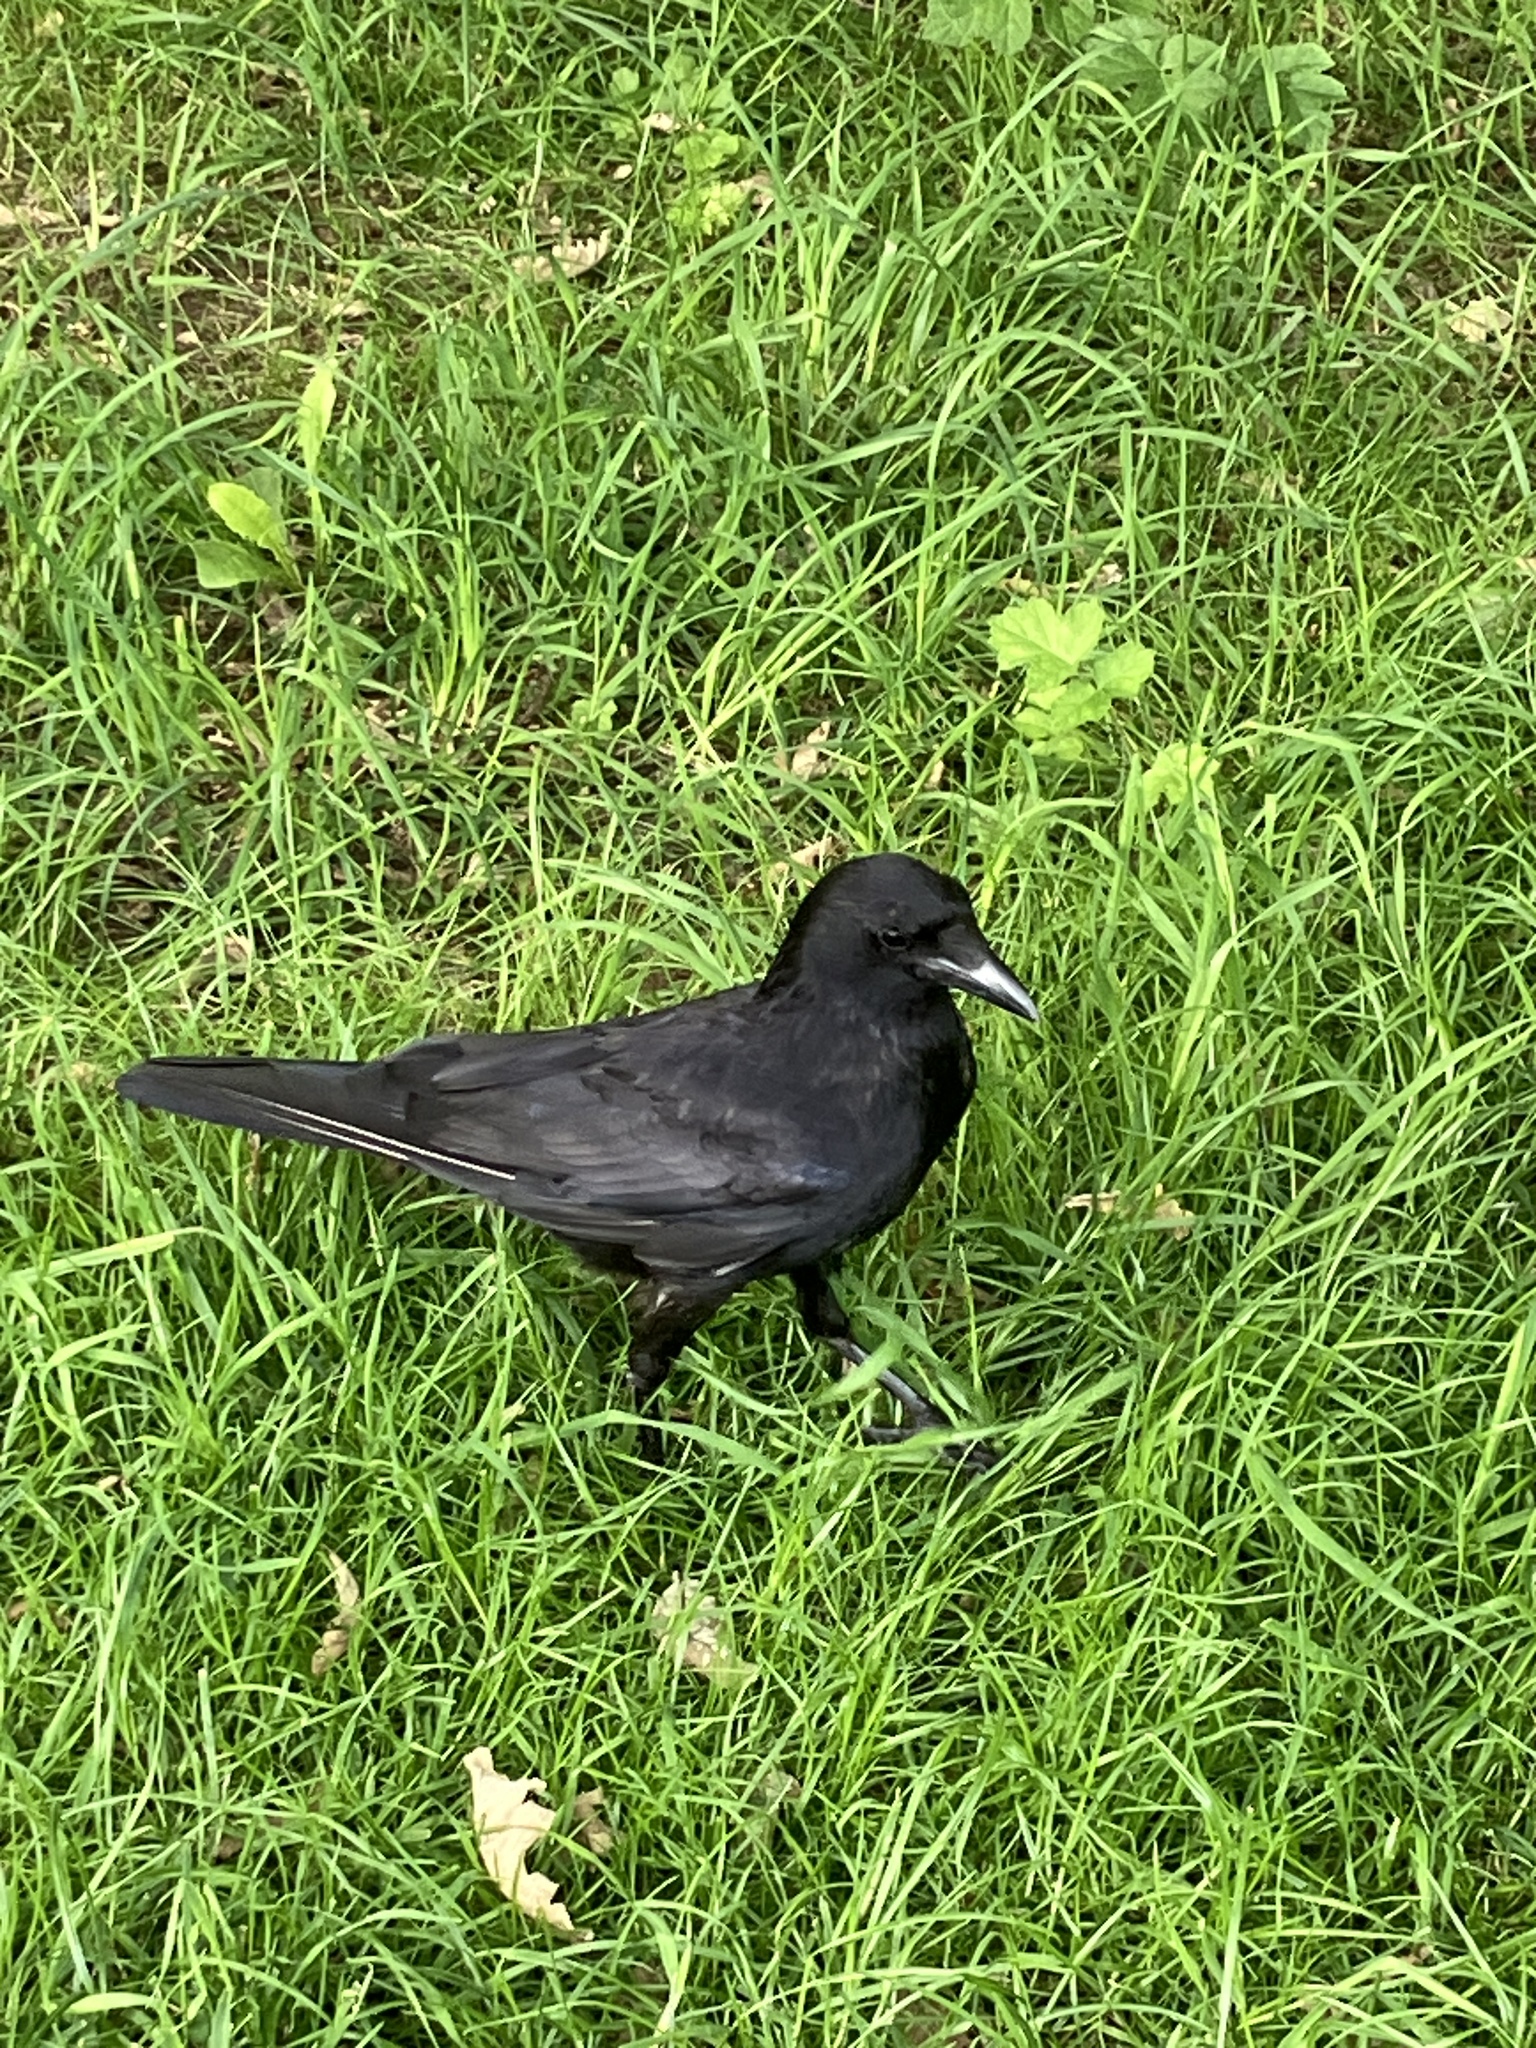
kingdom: Animalia
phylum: Chordata
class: Aves
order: Passeriformes
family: Corvidae
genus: Corvus
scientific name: Corvus corone
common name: Carrion crow
